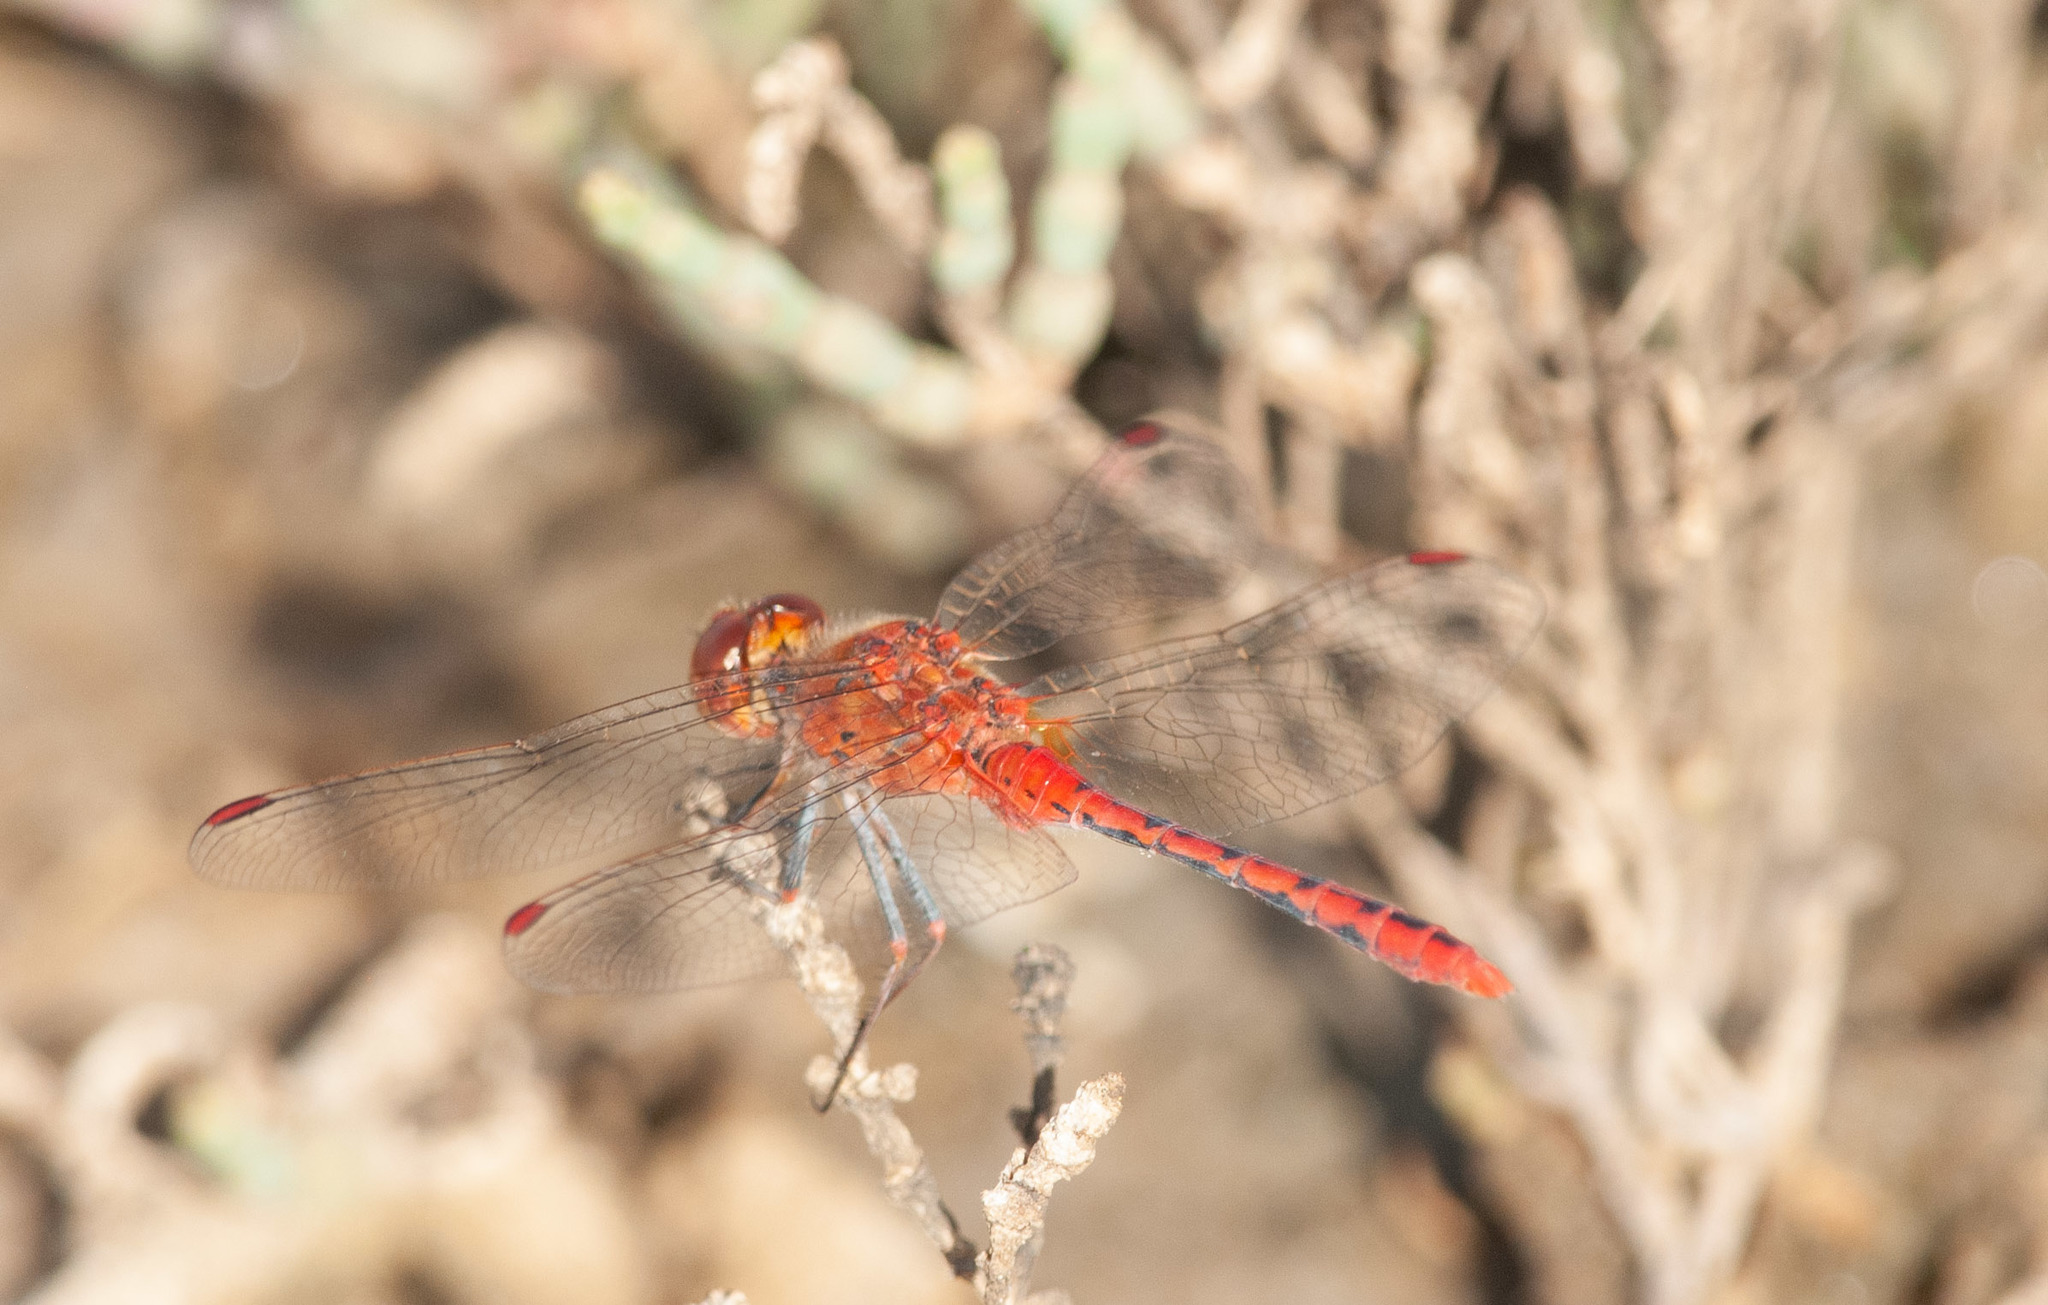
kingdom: Animalia
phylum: Arthropoda
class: Insecta
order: Odonata
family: Libellulidae
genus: Diplacodes
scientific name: Diplacodes bipunctata
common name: Red percher dragonfly
